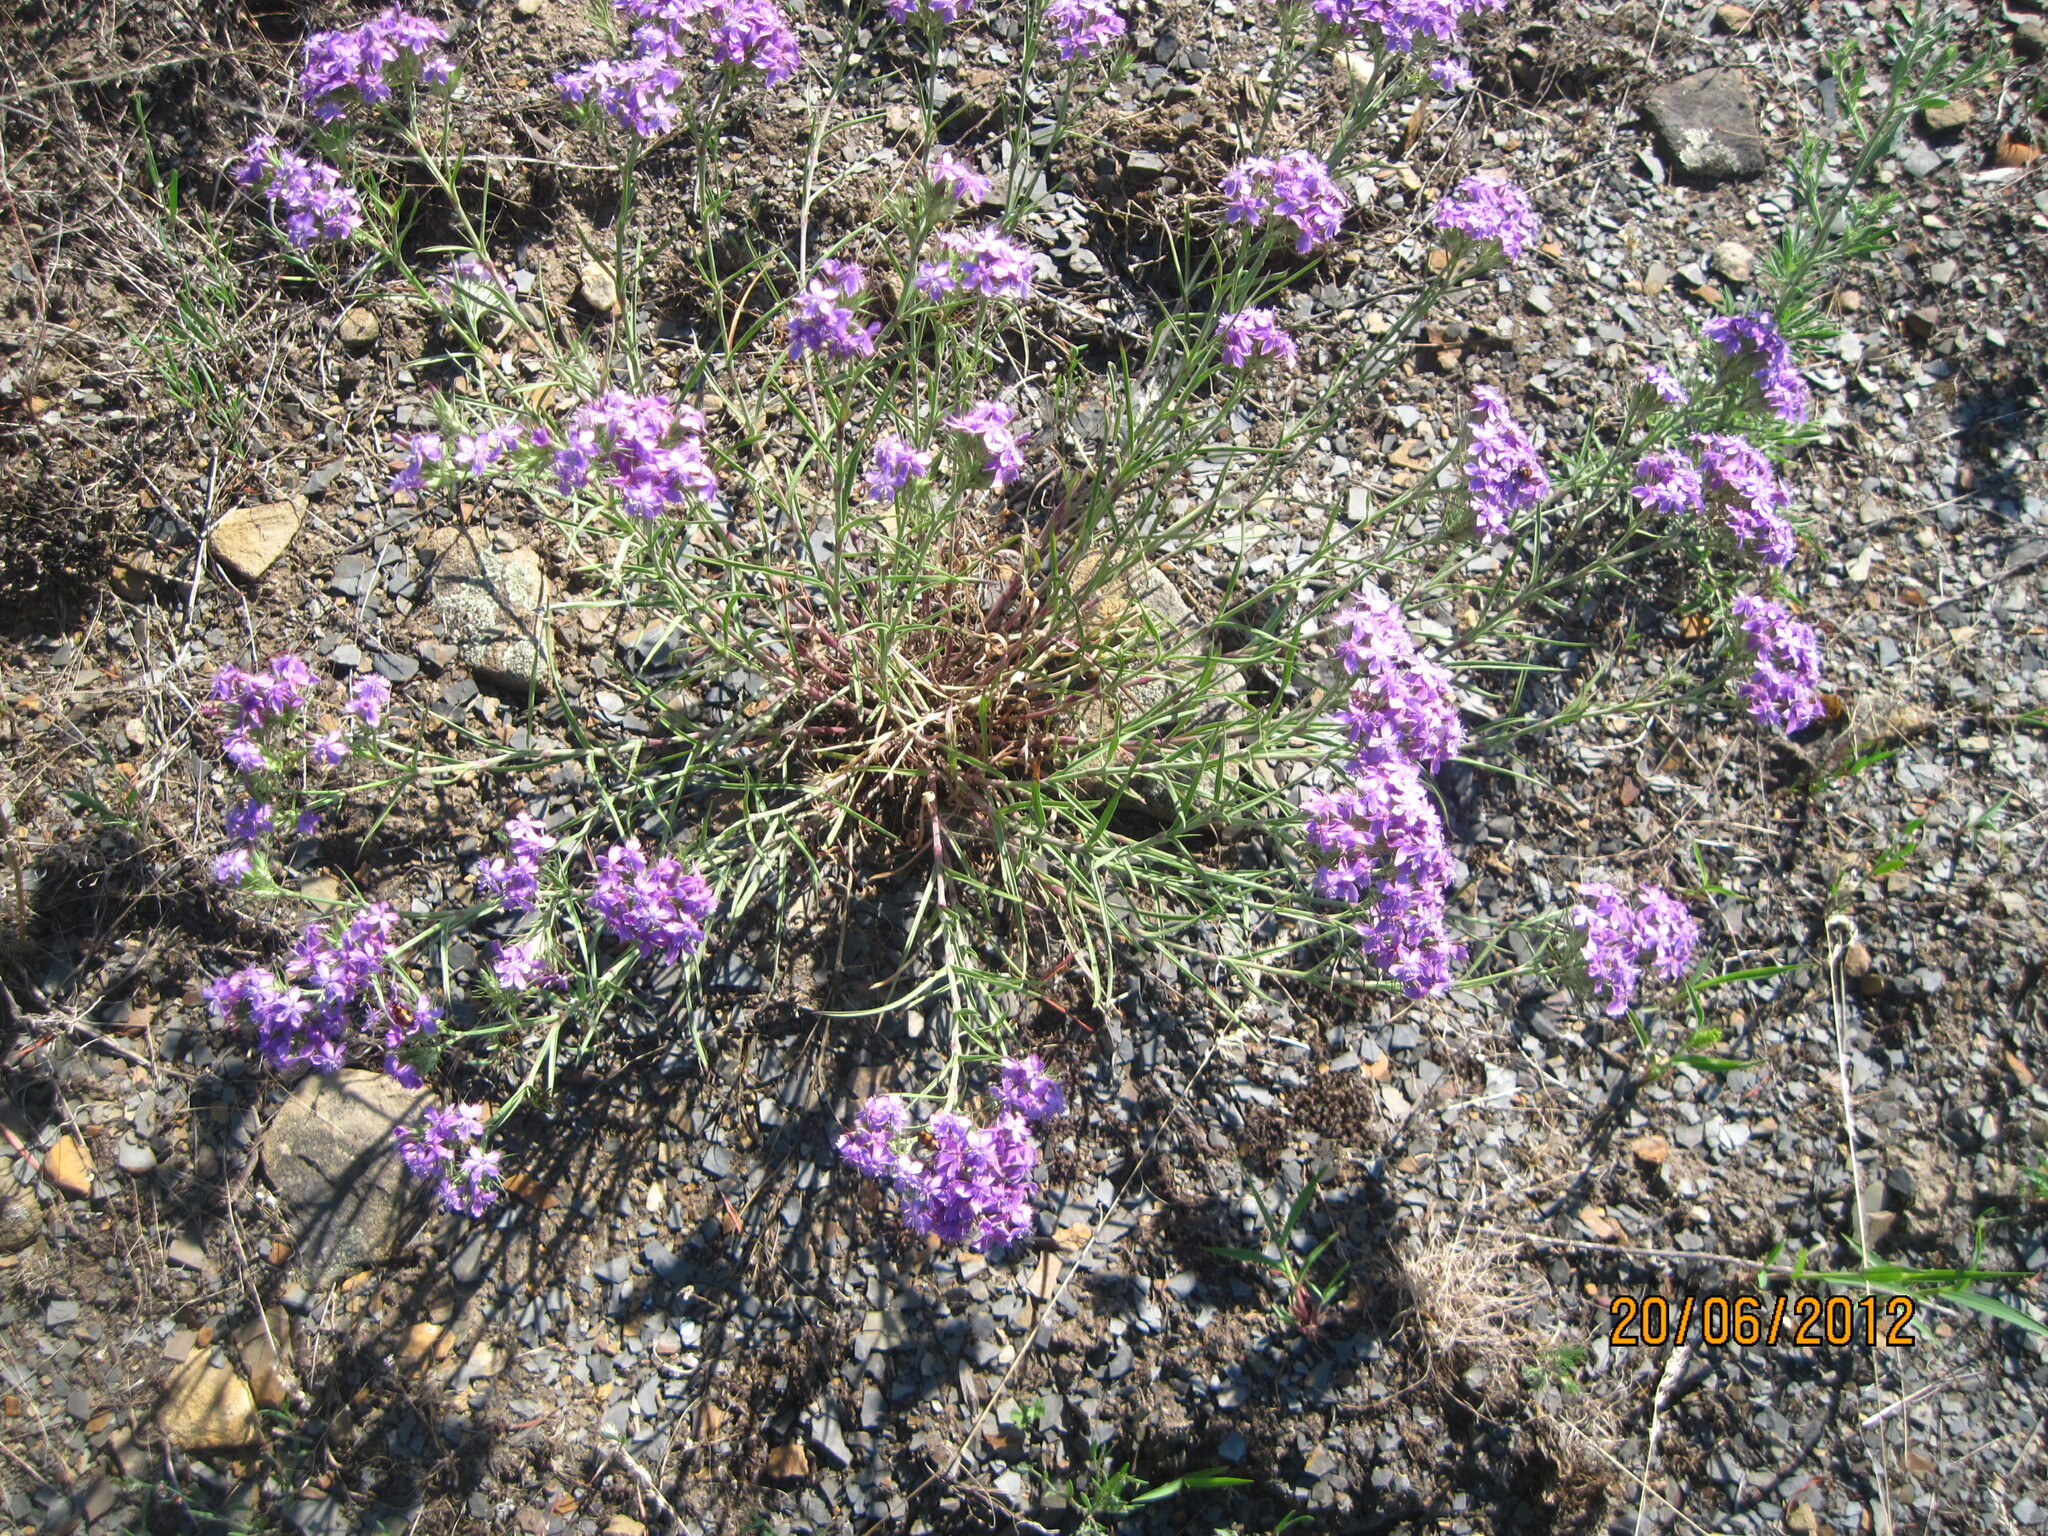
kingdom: Plantae
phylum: Tracheophyta
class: Magnoliopsida
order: Caryophyllales
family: Caryophyllaceae
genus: Dianthus
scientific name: Dianthus pseudarmeria
